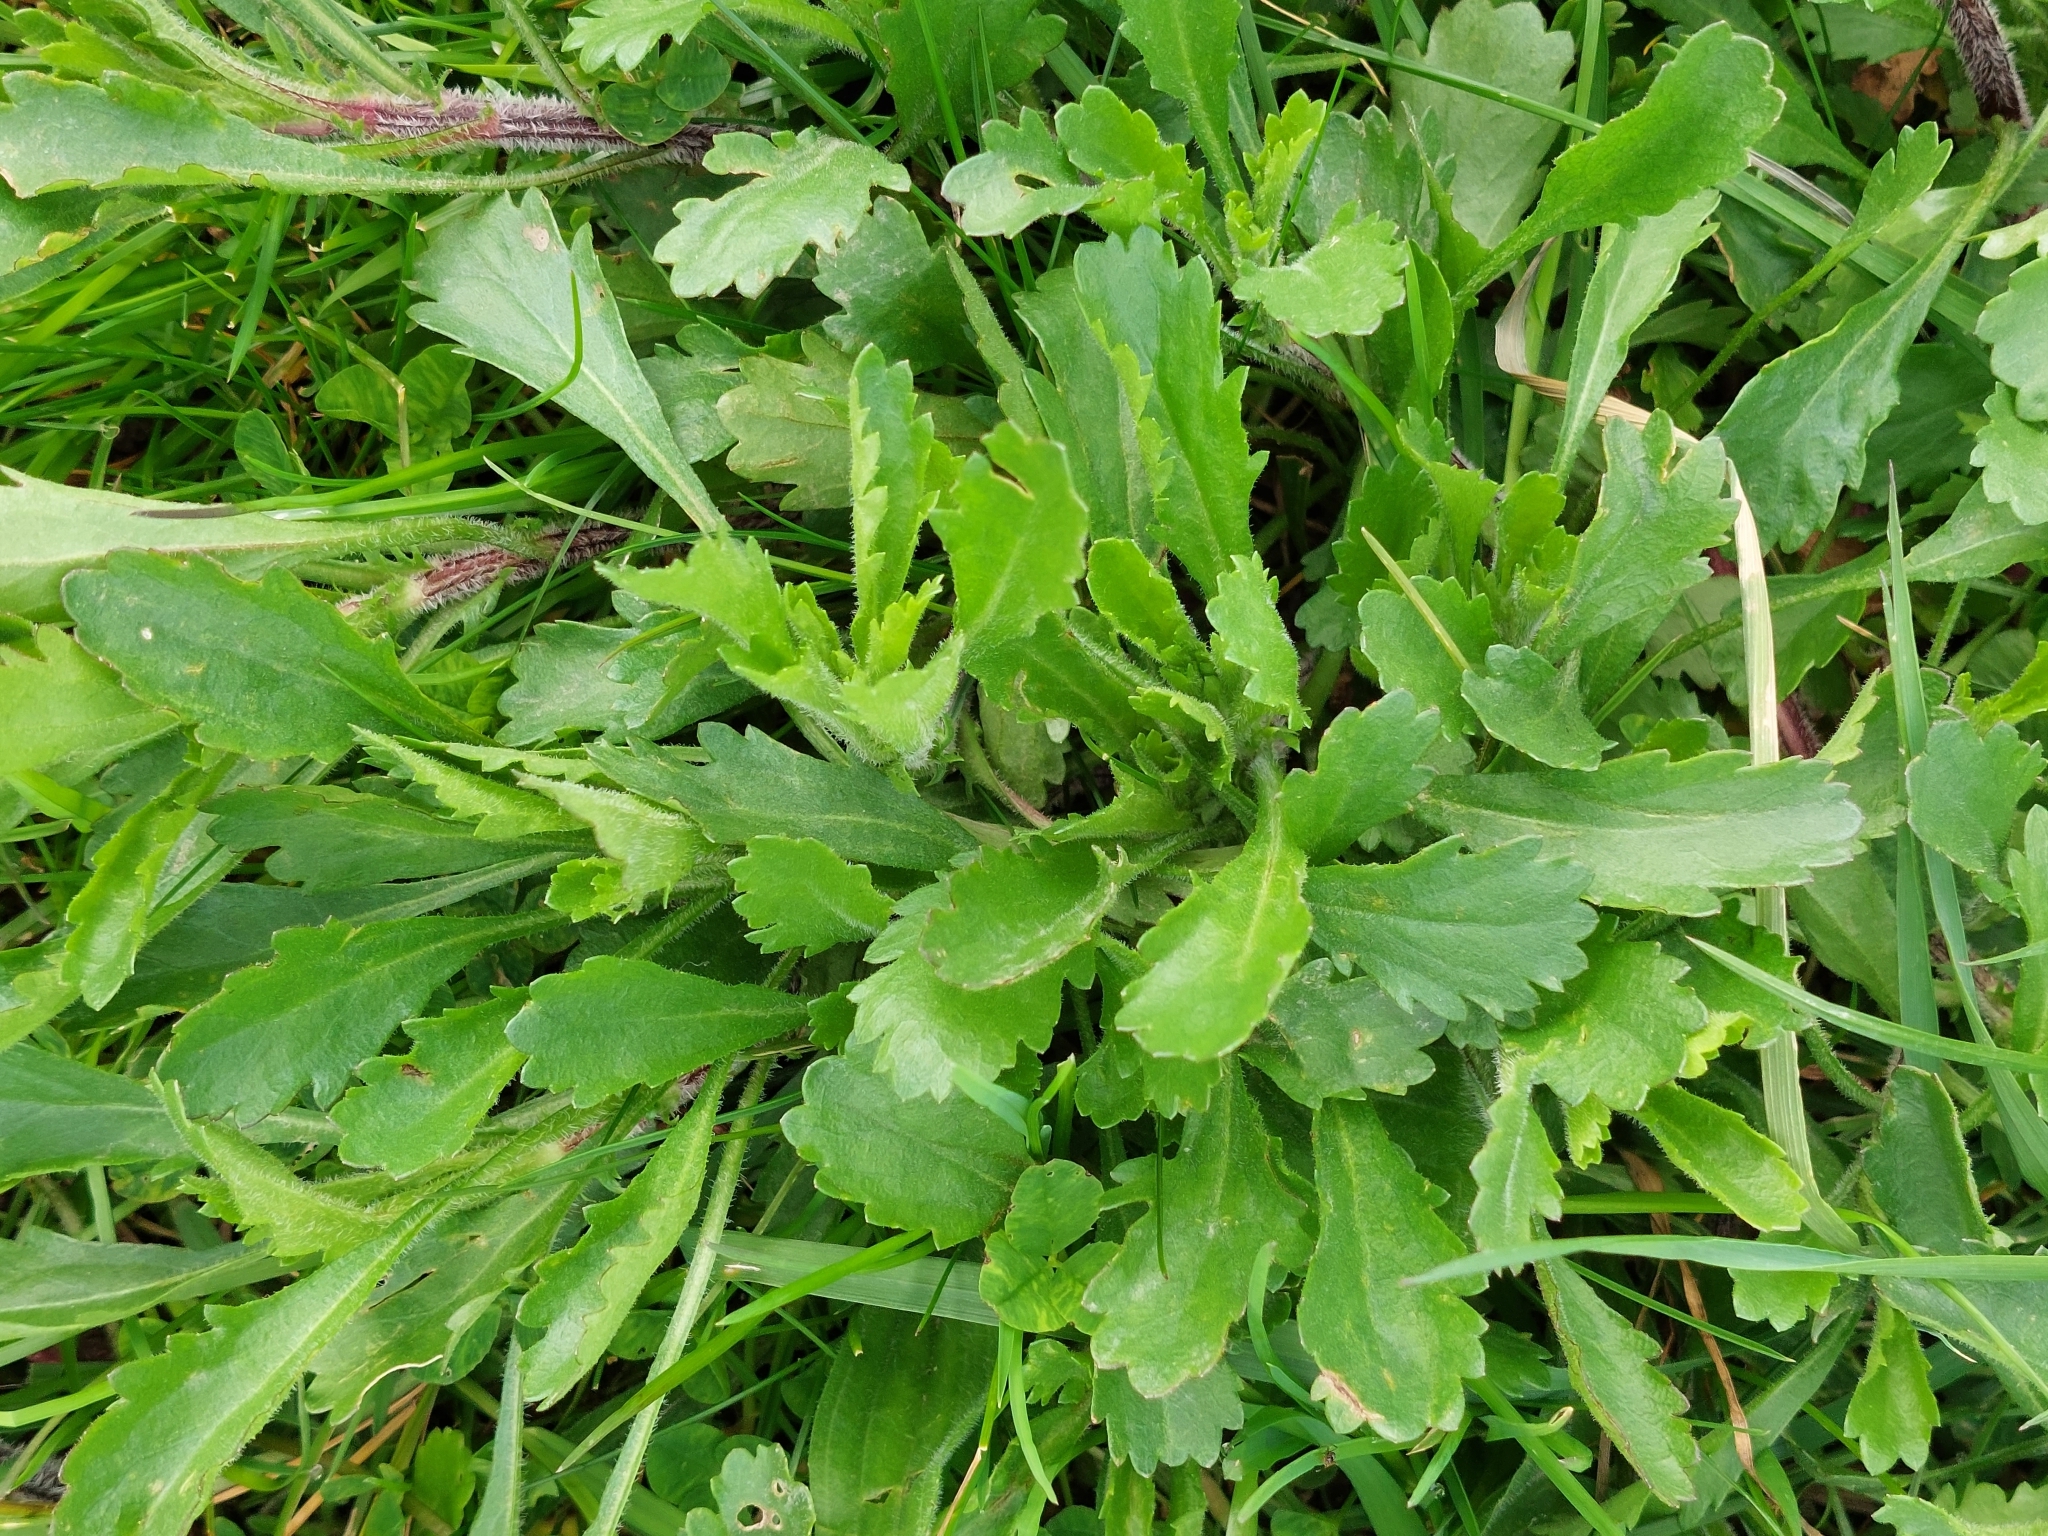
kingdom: Plantae
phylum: Tracheophyta
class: Magnoliopsida
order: Asterales
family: Asteraceae
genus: Leucanthemum
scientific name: Leucanthemum vulgare
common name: Oxeye daisy
